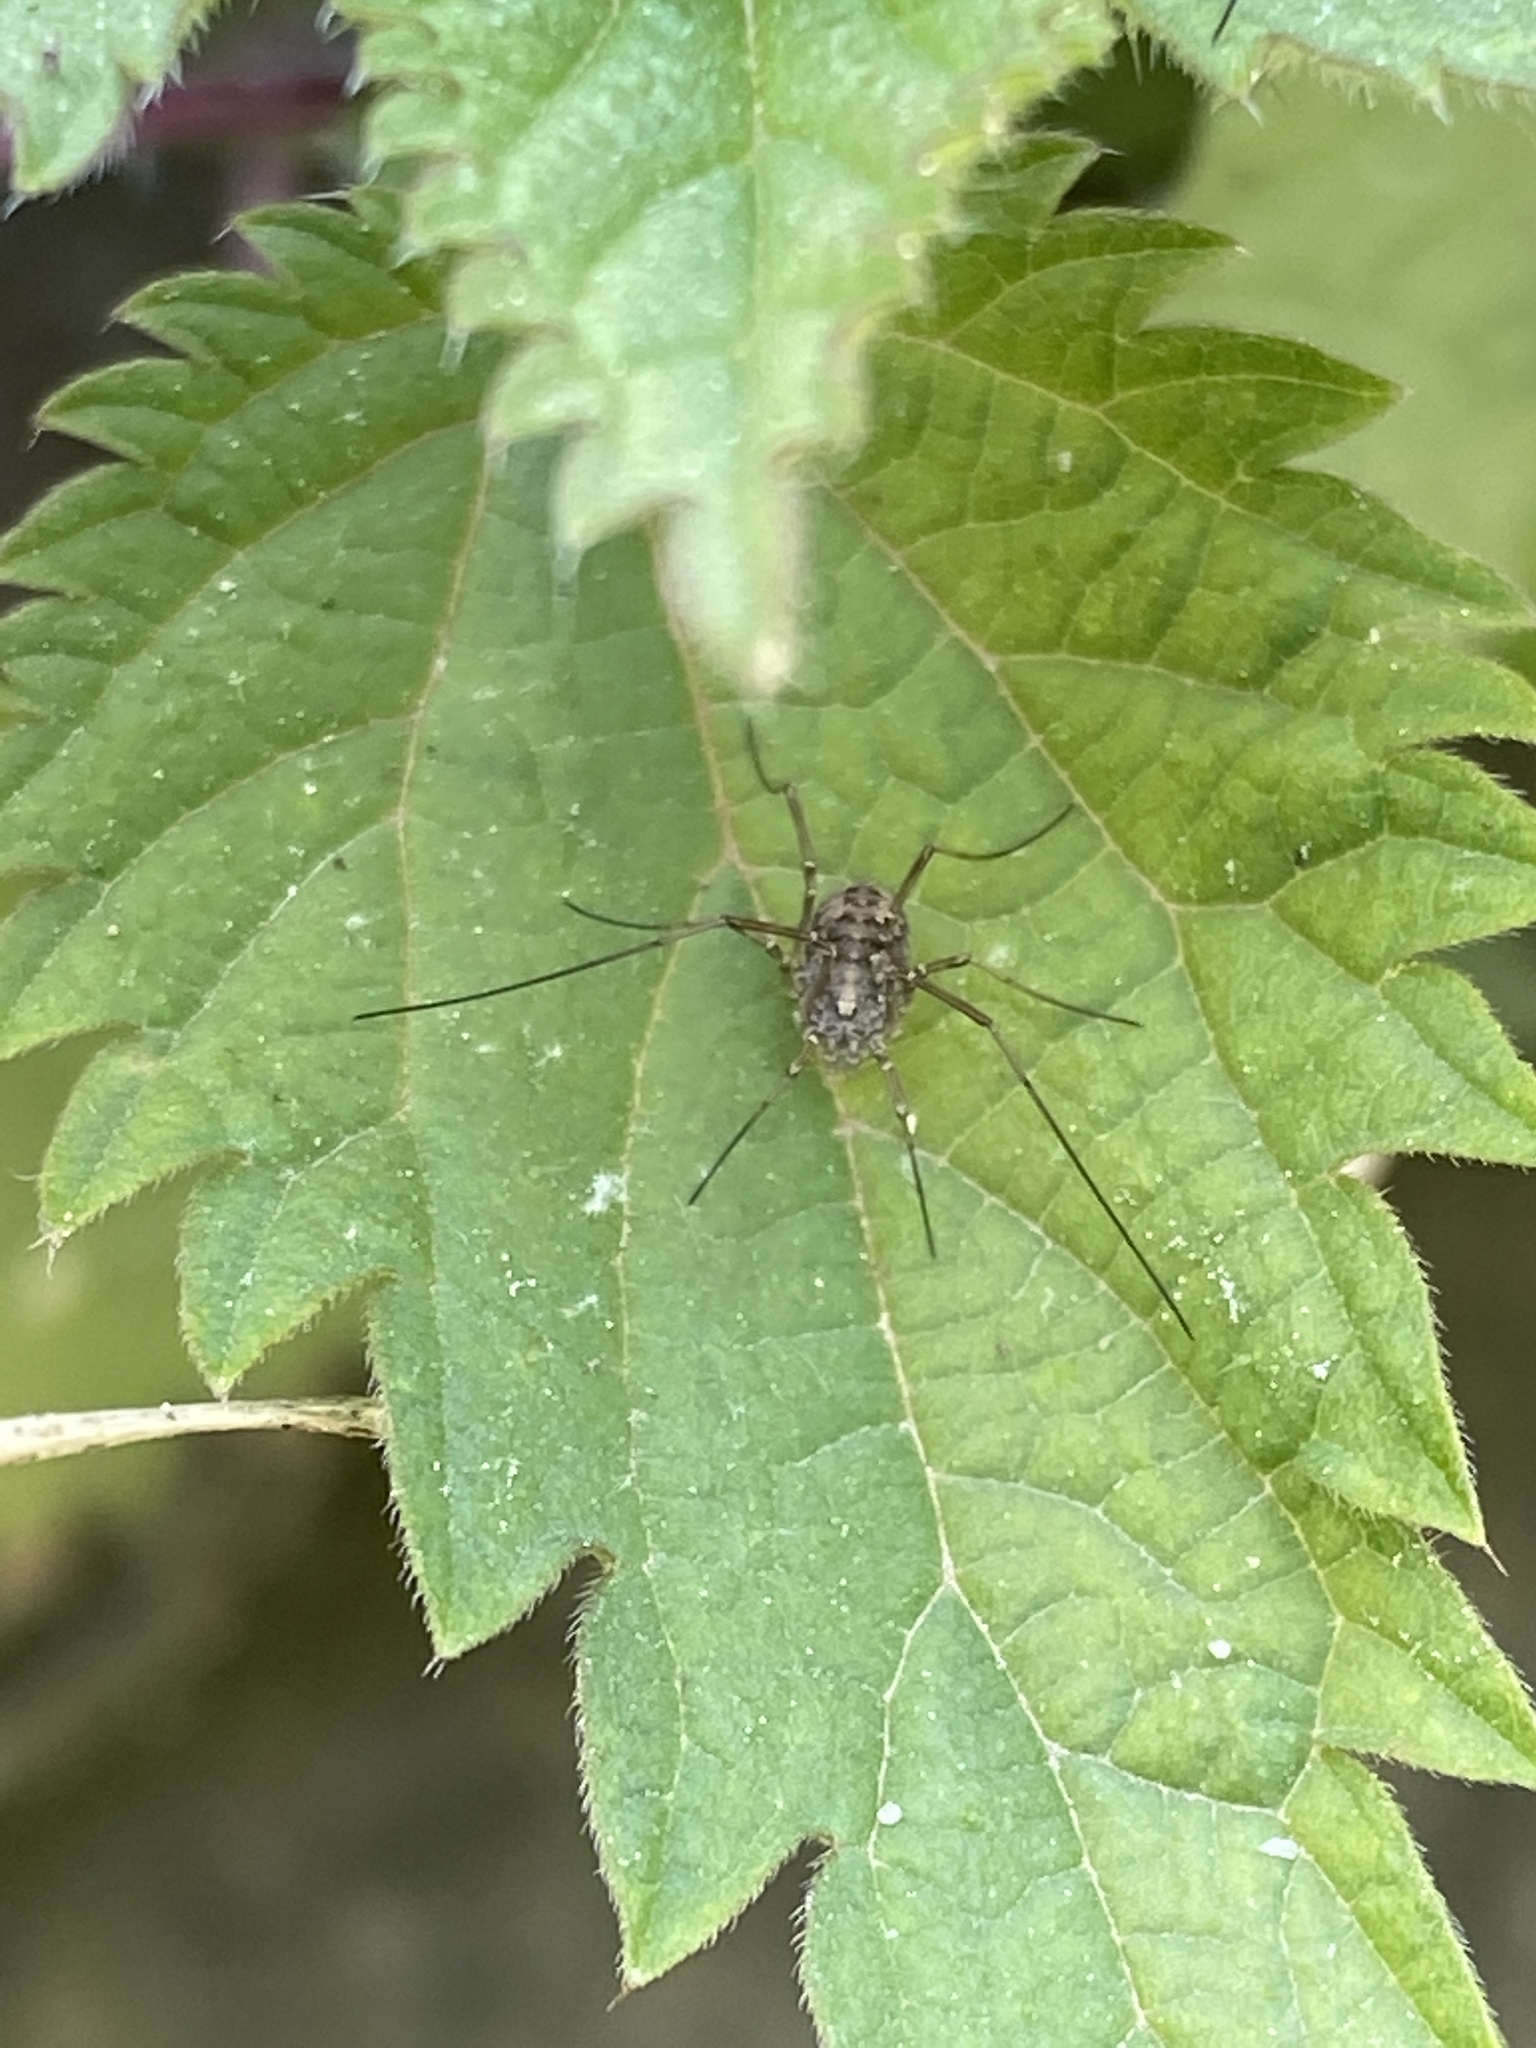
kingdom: Animalia
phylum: Arthropoda
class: Arachnida
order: Opiliones
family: Phalangiidae
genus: Phalangium
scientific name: Phalangium opilio
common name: Daddy longleg
